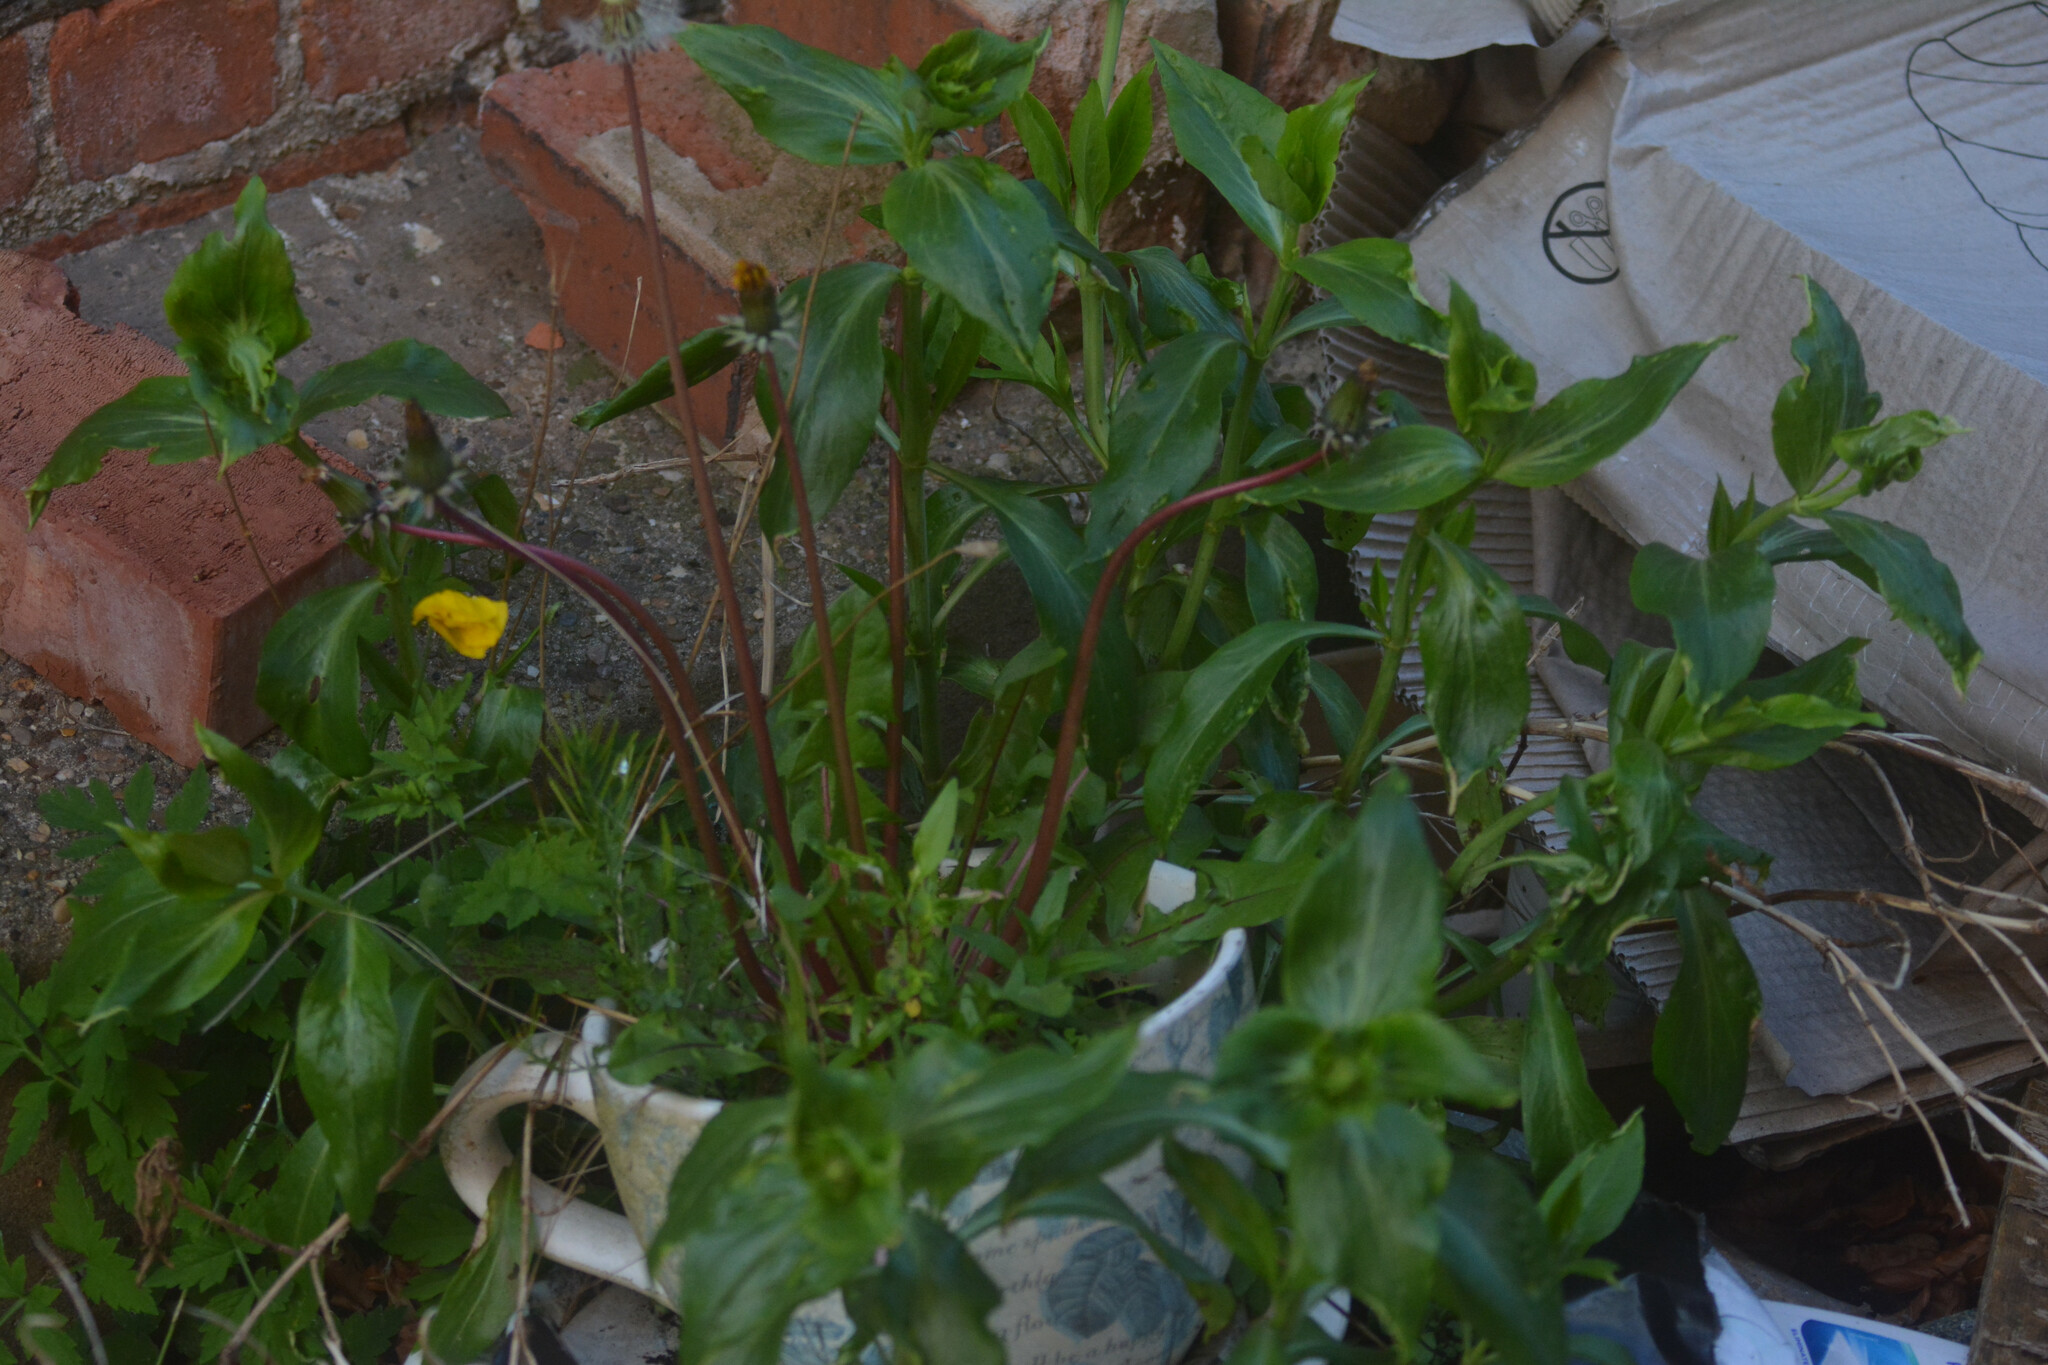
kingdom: Plantae
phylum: Tracheophyta
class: Magnoliopsida
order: Dipsacales
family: Caprifoliaceae
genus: Centranthus
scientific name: Centranthus ruber
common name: Red valerian
